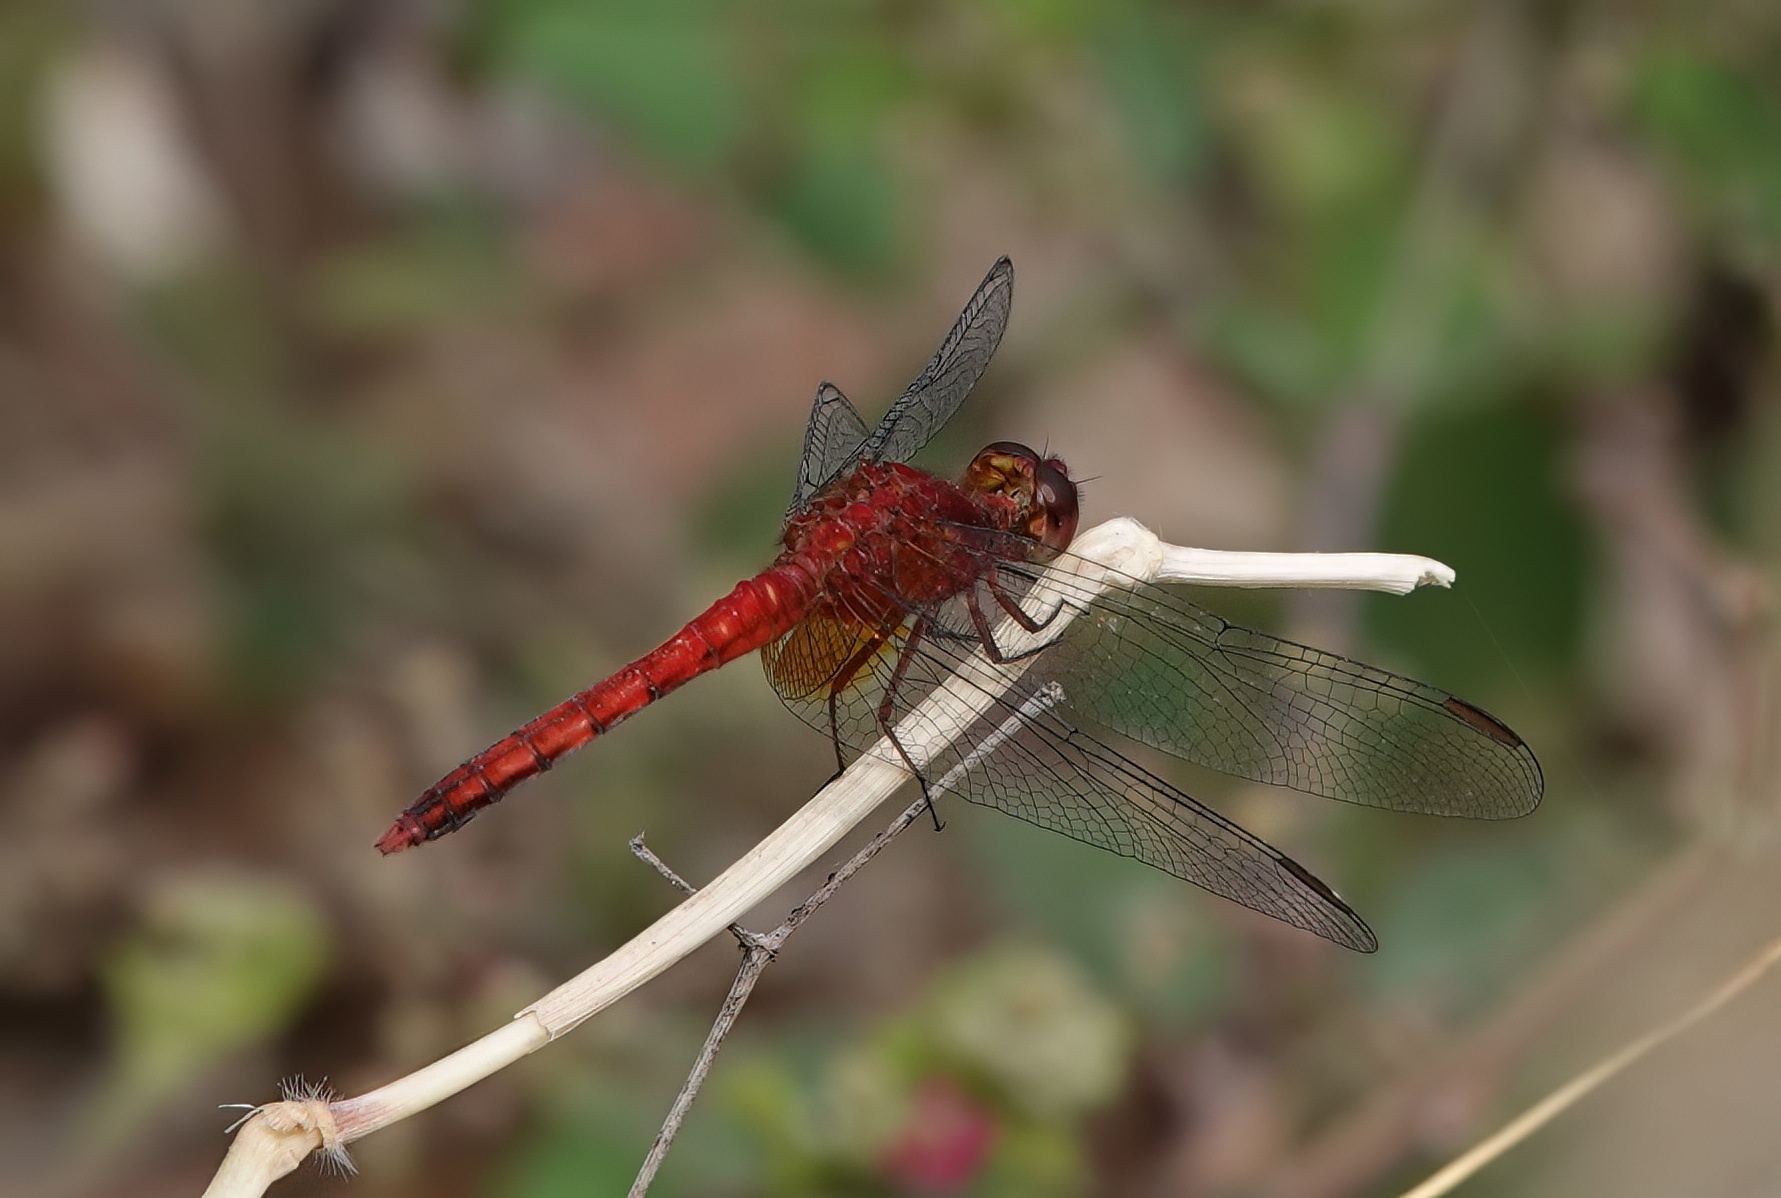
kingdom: Animalia
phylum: Arthropoda
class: Insecta
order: Odonata
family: Libellulidae
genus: Erythrodiplax
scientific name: Erythrodiplax fusca
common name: Red-faced dragonlet
